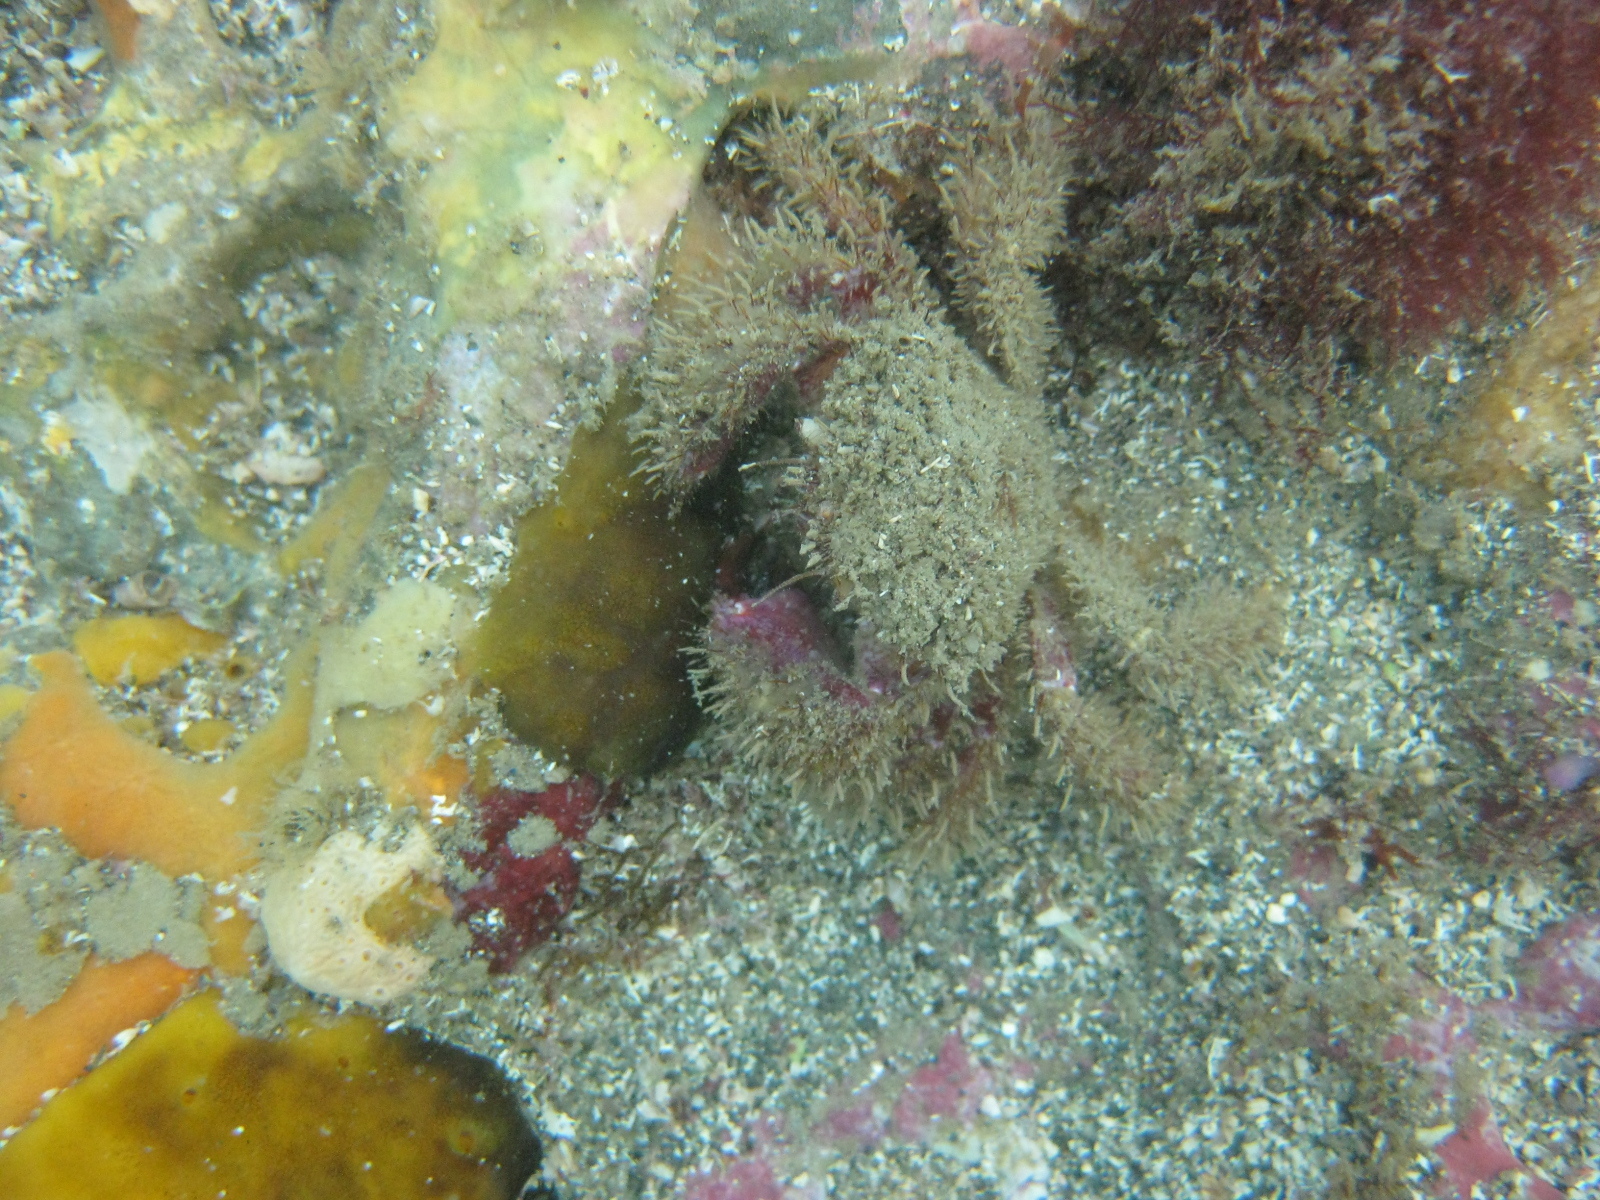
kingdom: Animalia
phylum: Arthropoda
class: Malacostraca
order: Decapoda
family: Pilumnidae
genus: Pilumnus
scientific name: Pilumnus novaezealandiae
